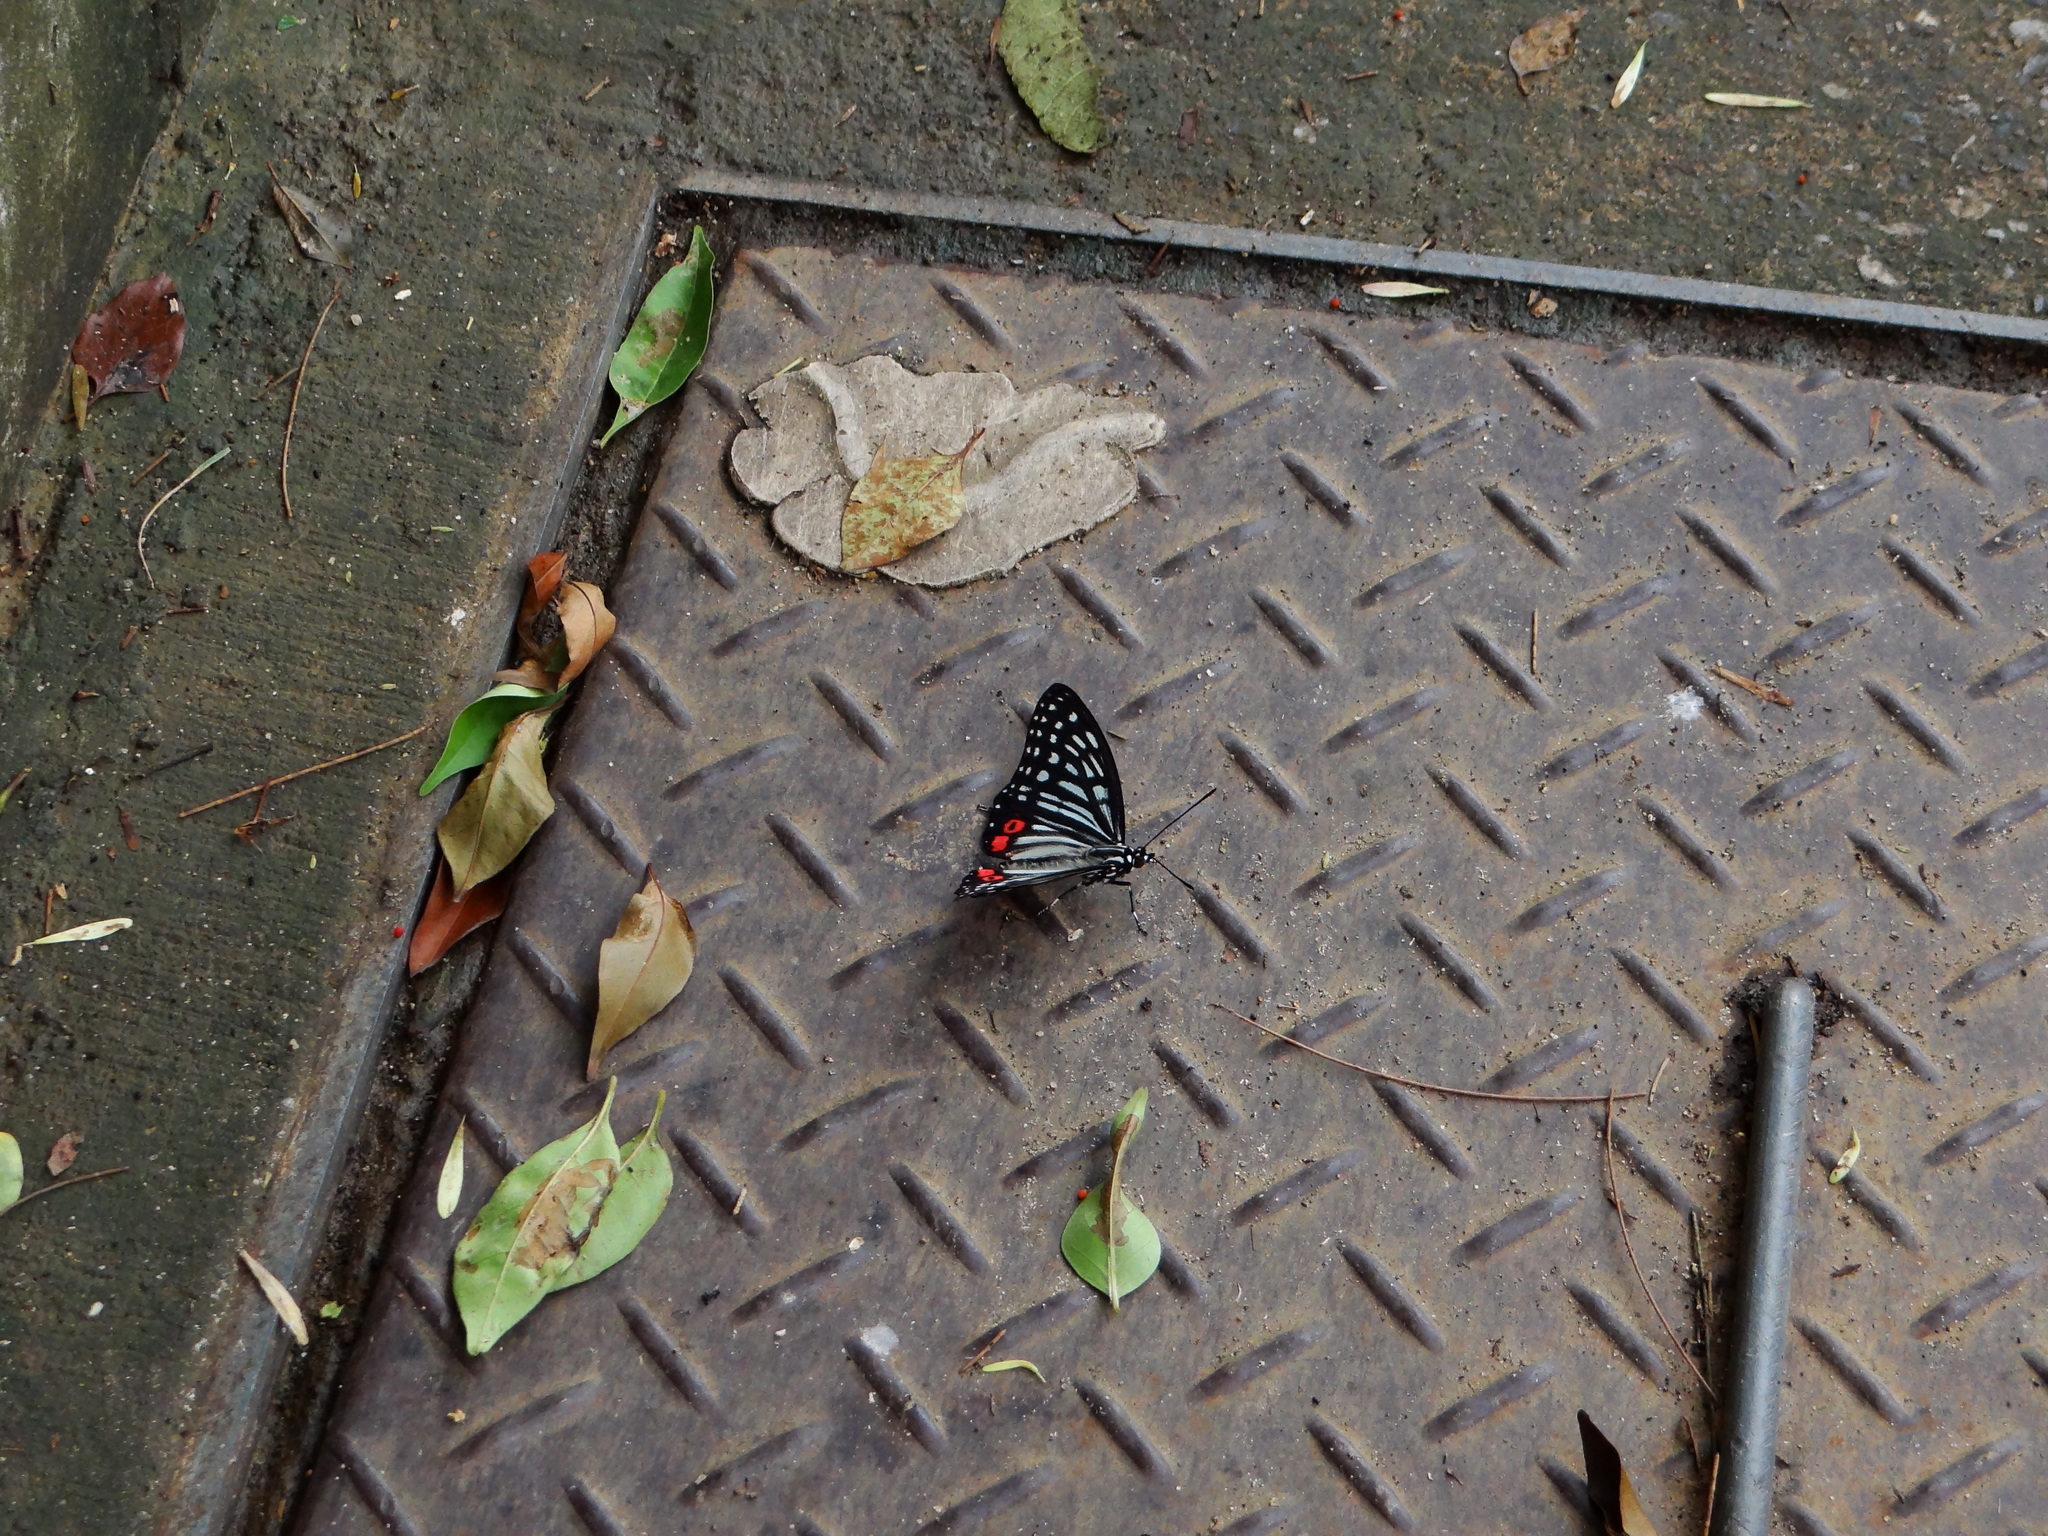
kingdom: Animalia
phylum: Arthropoda
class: Insecta
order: Lepidoptera
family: Nymphalidae
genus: Hestina
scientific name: Hestina assimilis
